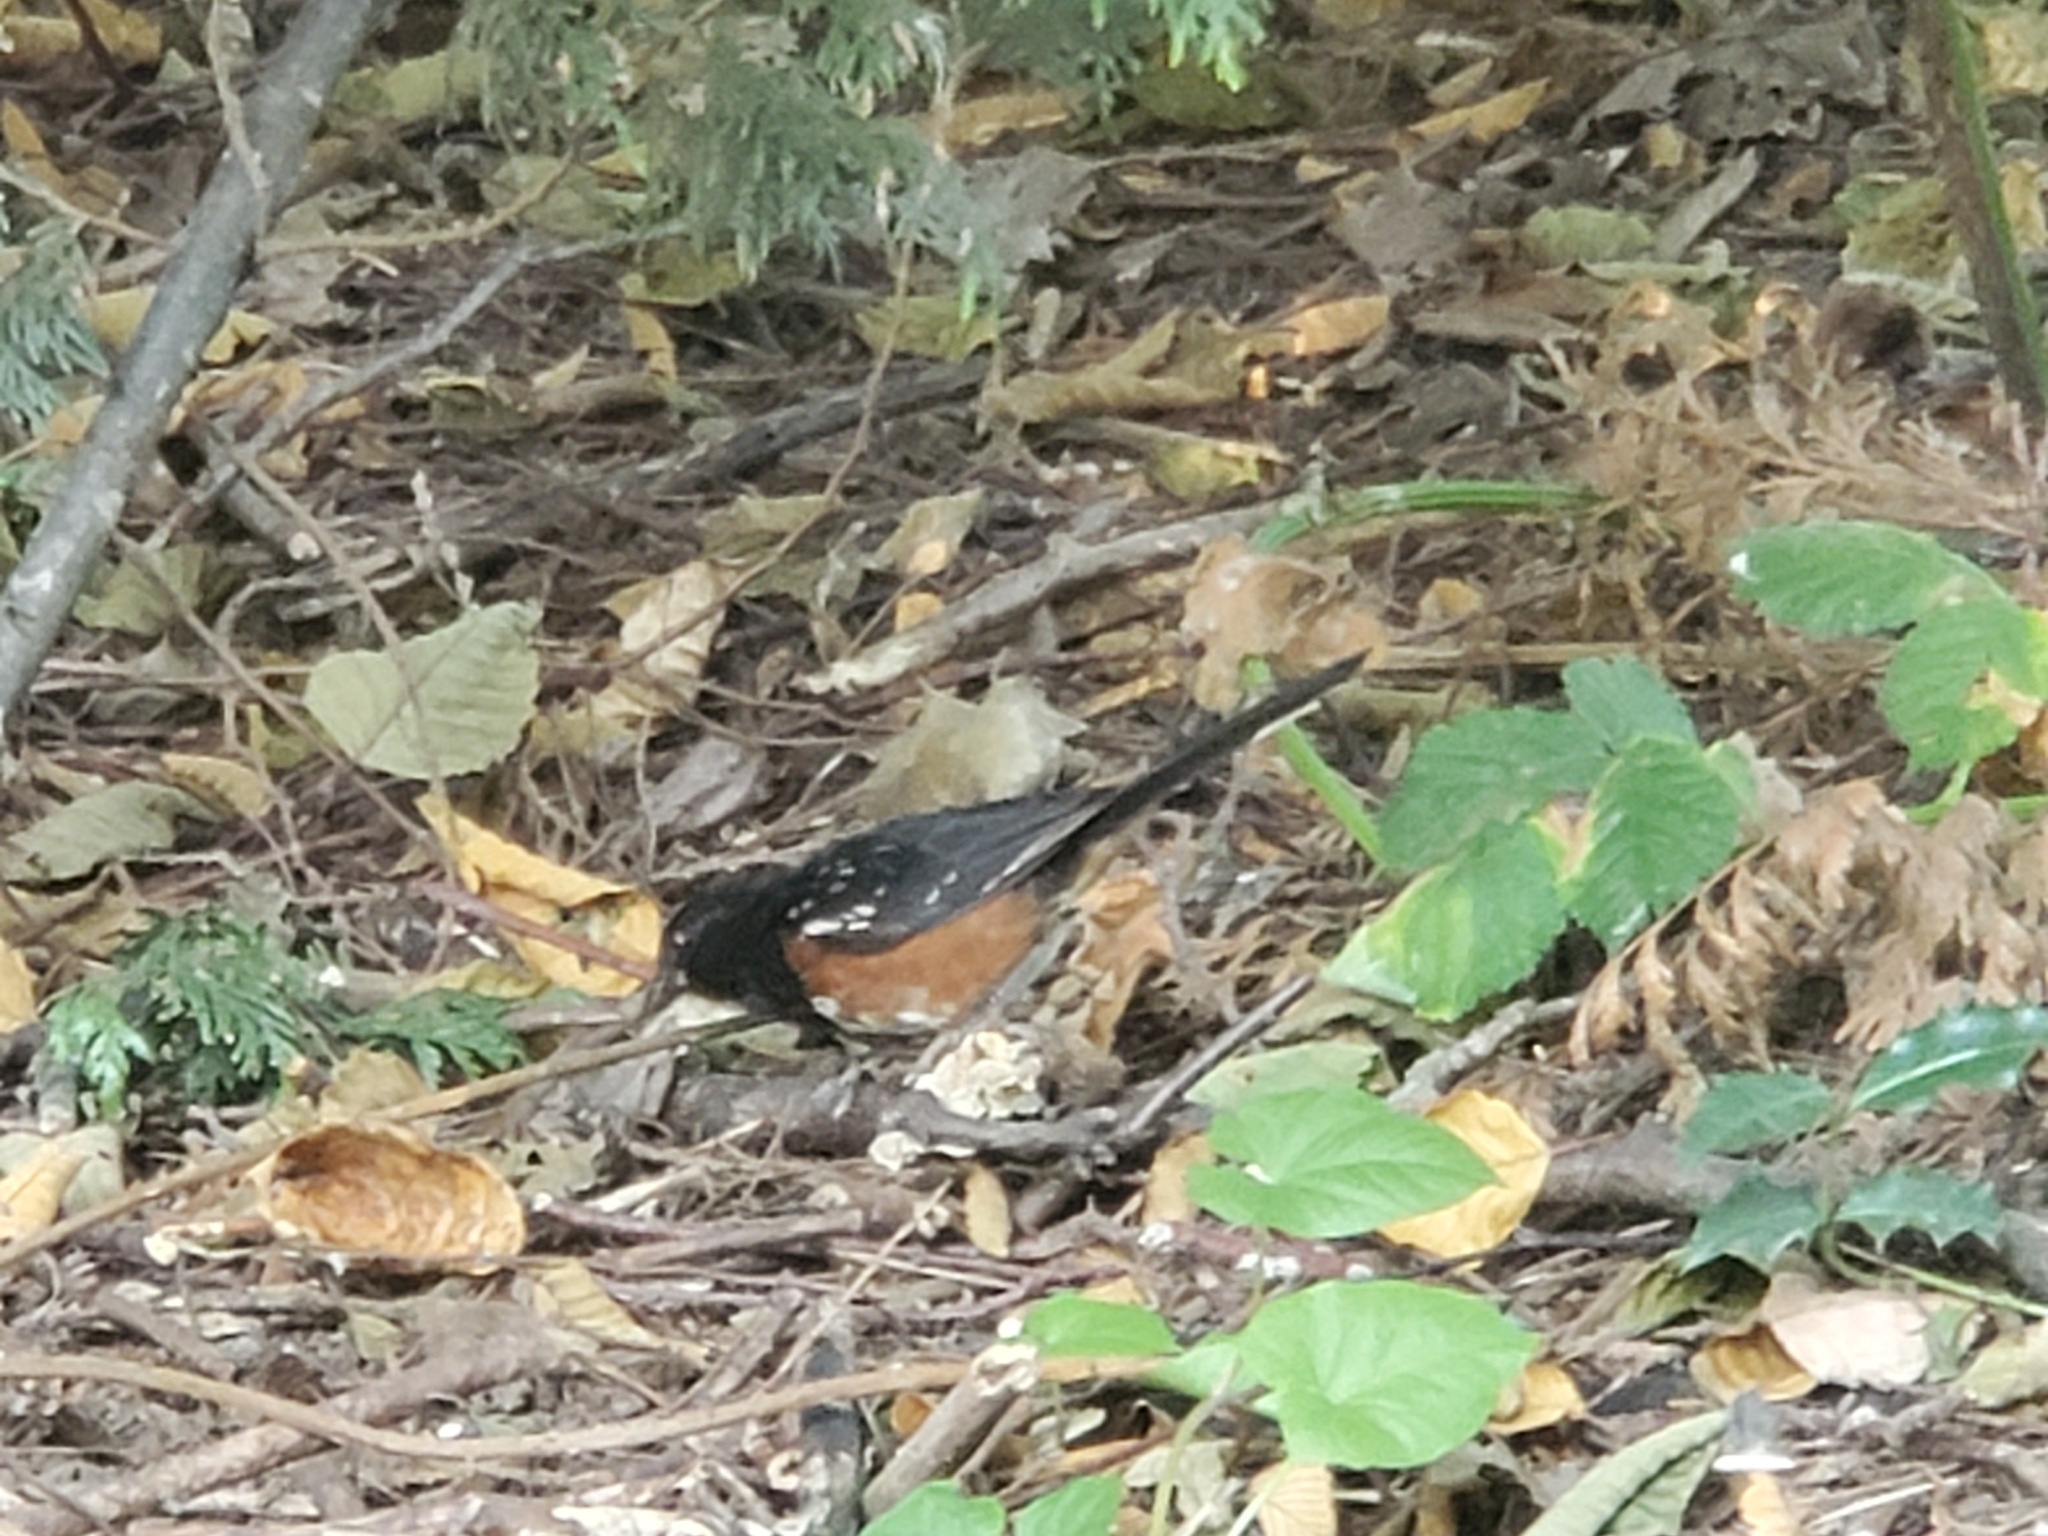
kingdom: Animalia
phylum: Chordata
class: Aves
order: Passeriformes
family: Passerellidae
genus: Pipilo
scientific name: Pipilo maculatus
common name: Spotted towhee
